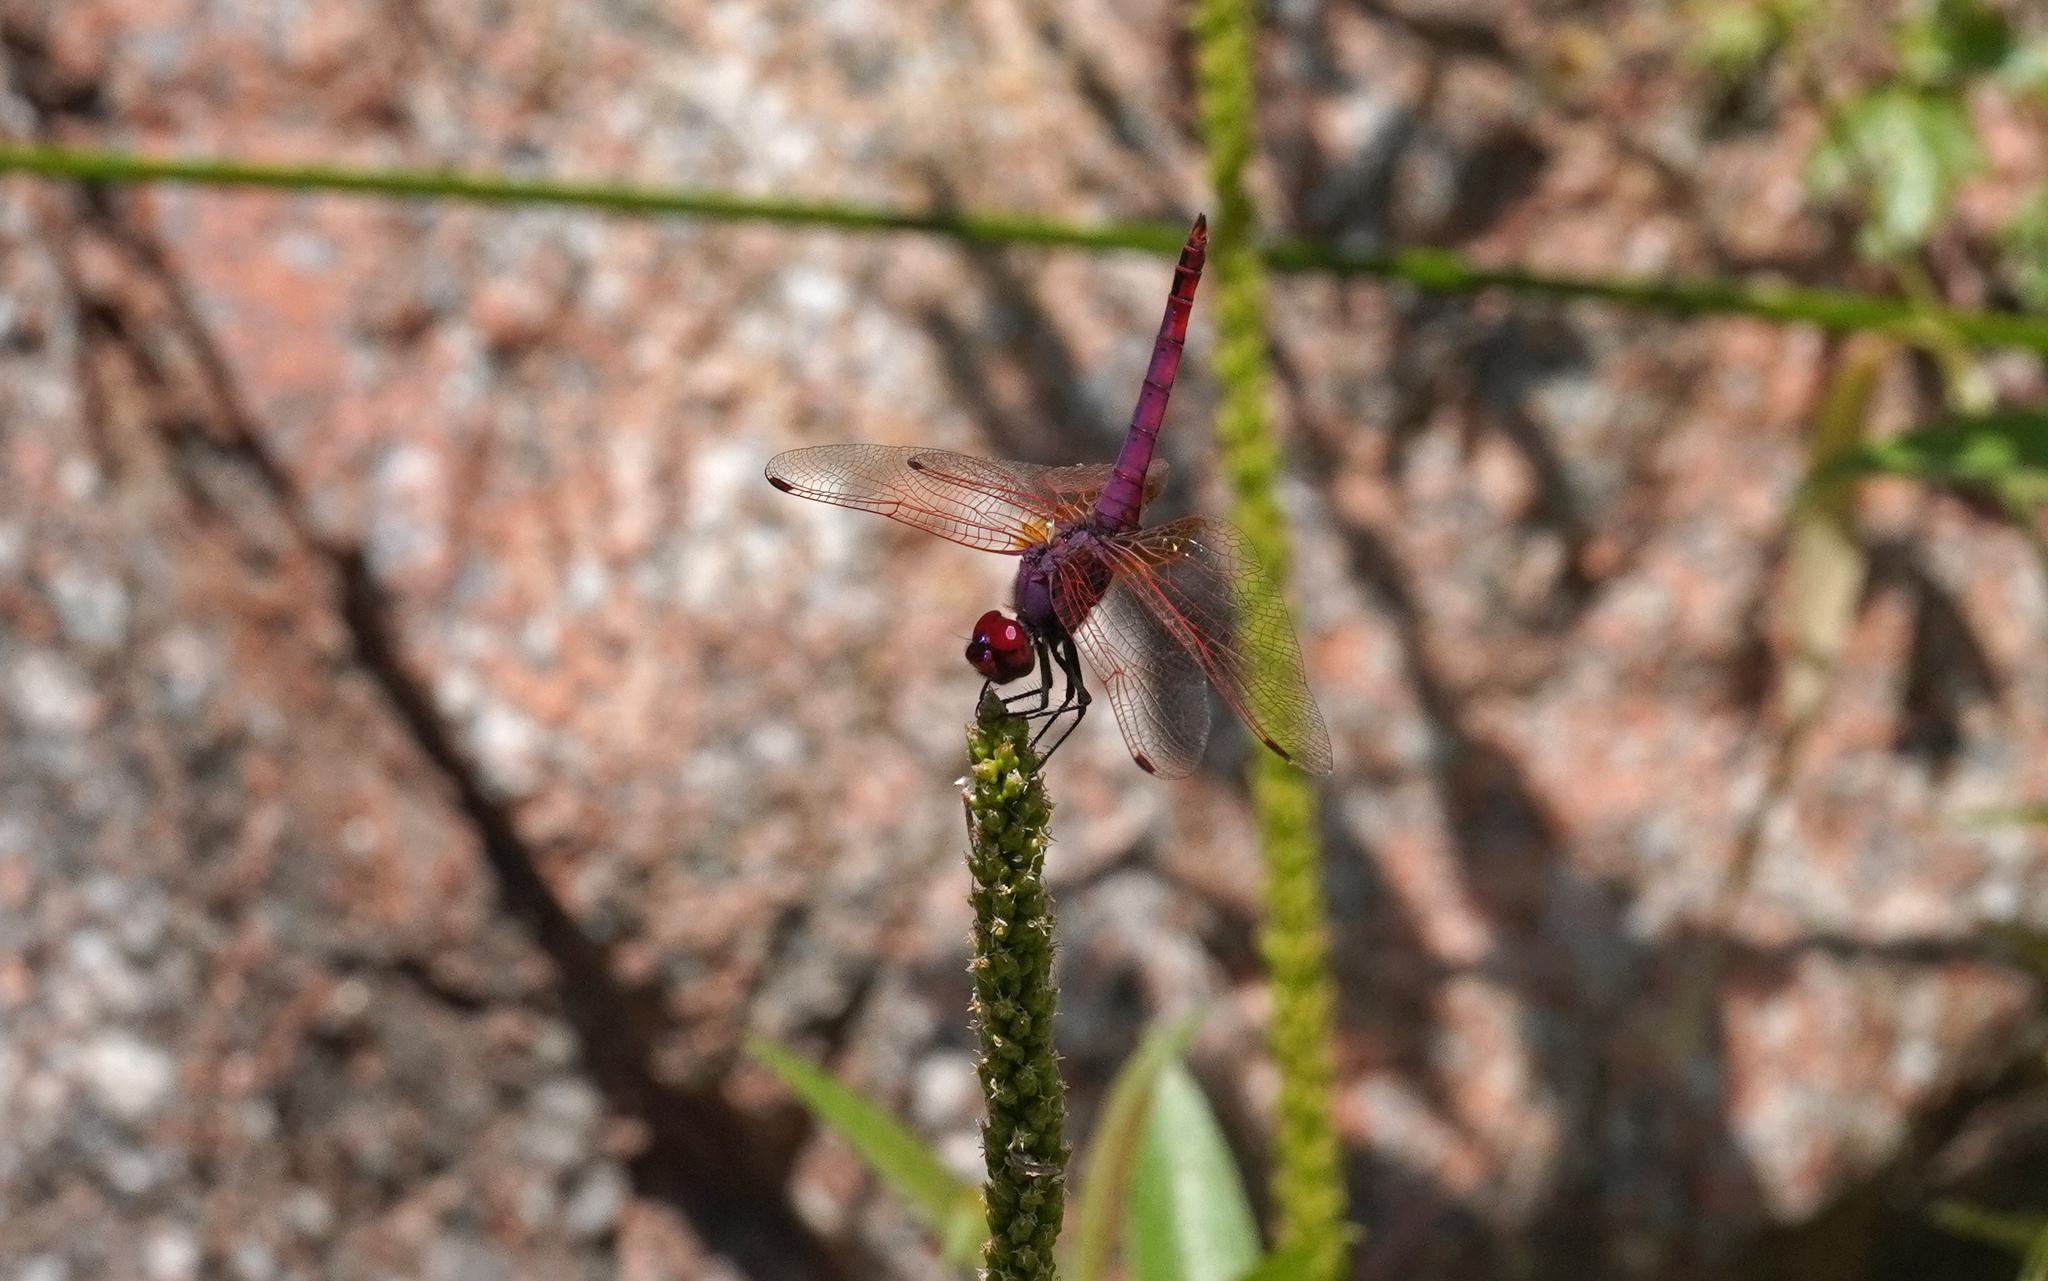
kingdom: Animalia
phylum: Arthropoda
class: Insecta
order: Odonata
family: Libellulidae
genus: Trithemis
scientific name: Trithemis annulata
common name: Violet dropwing
